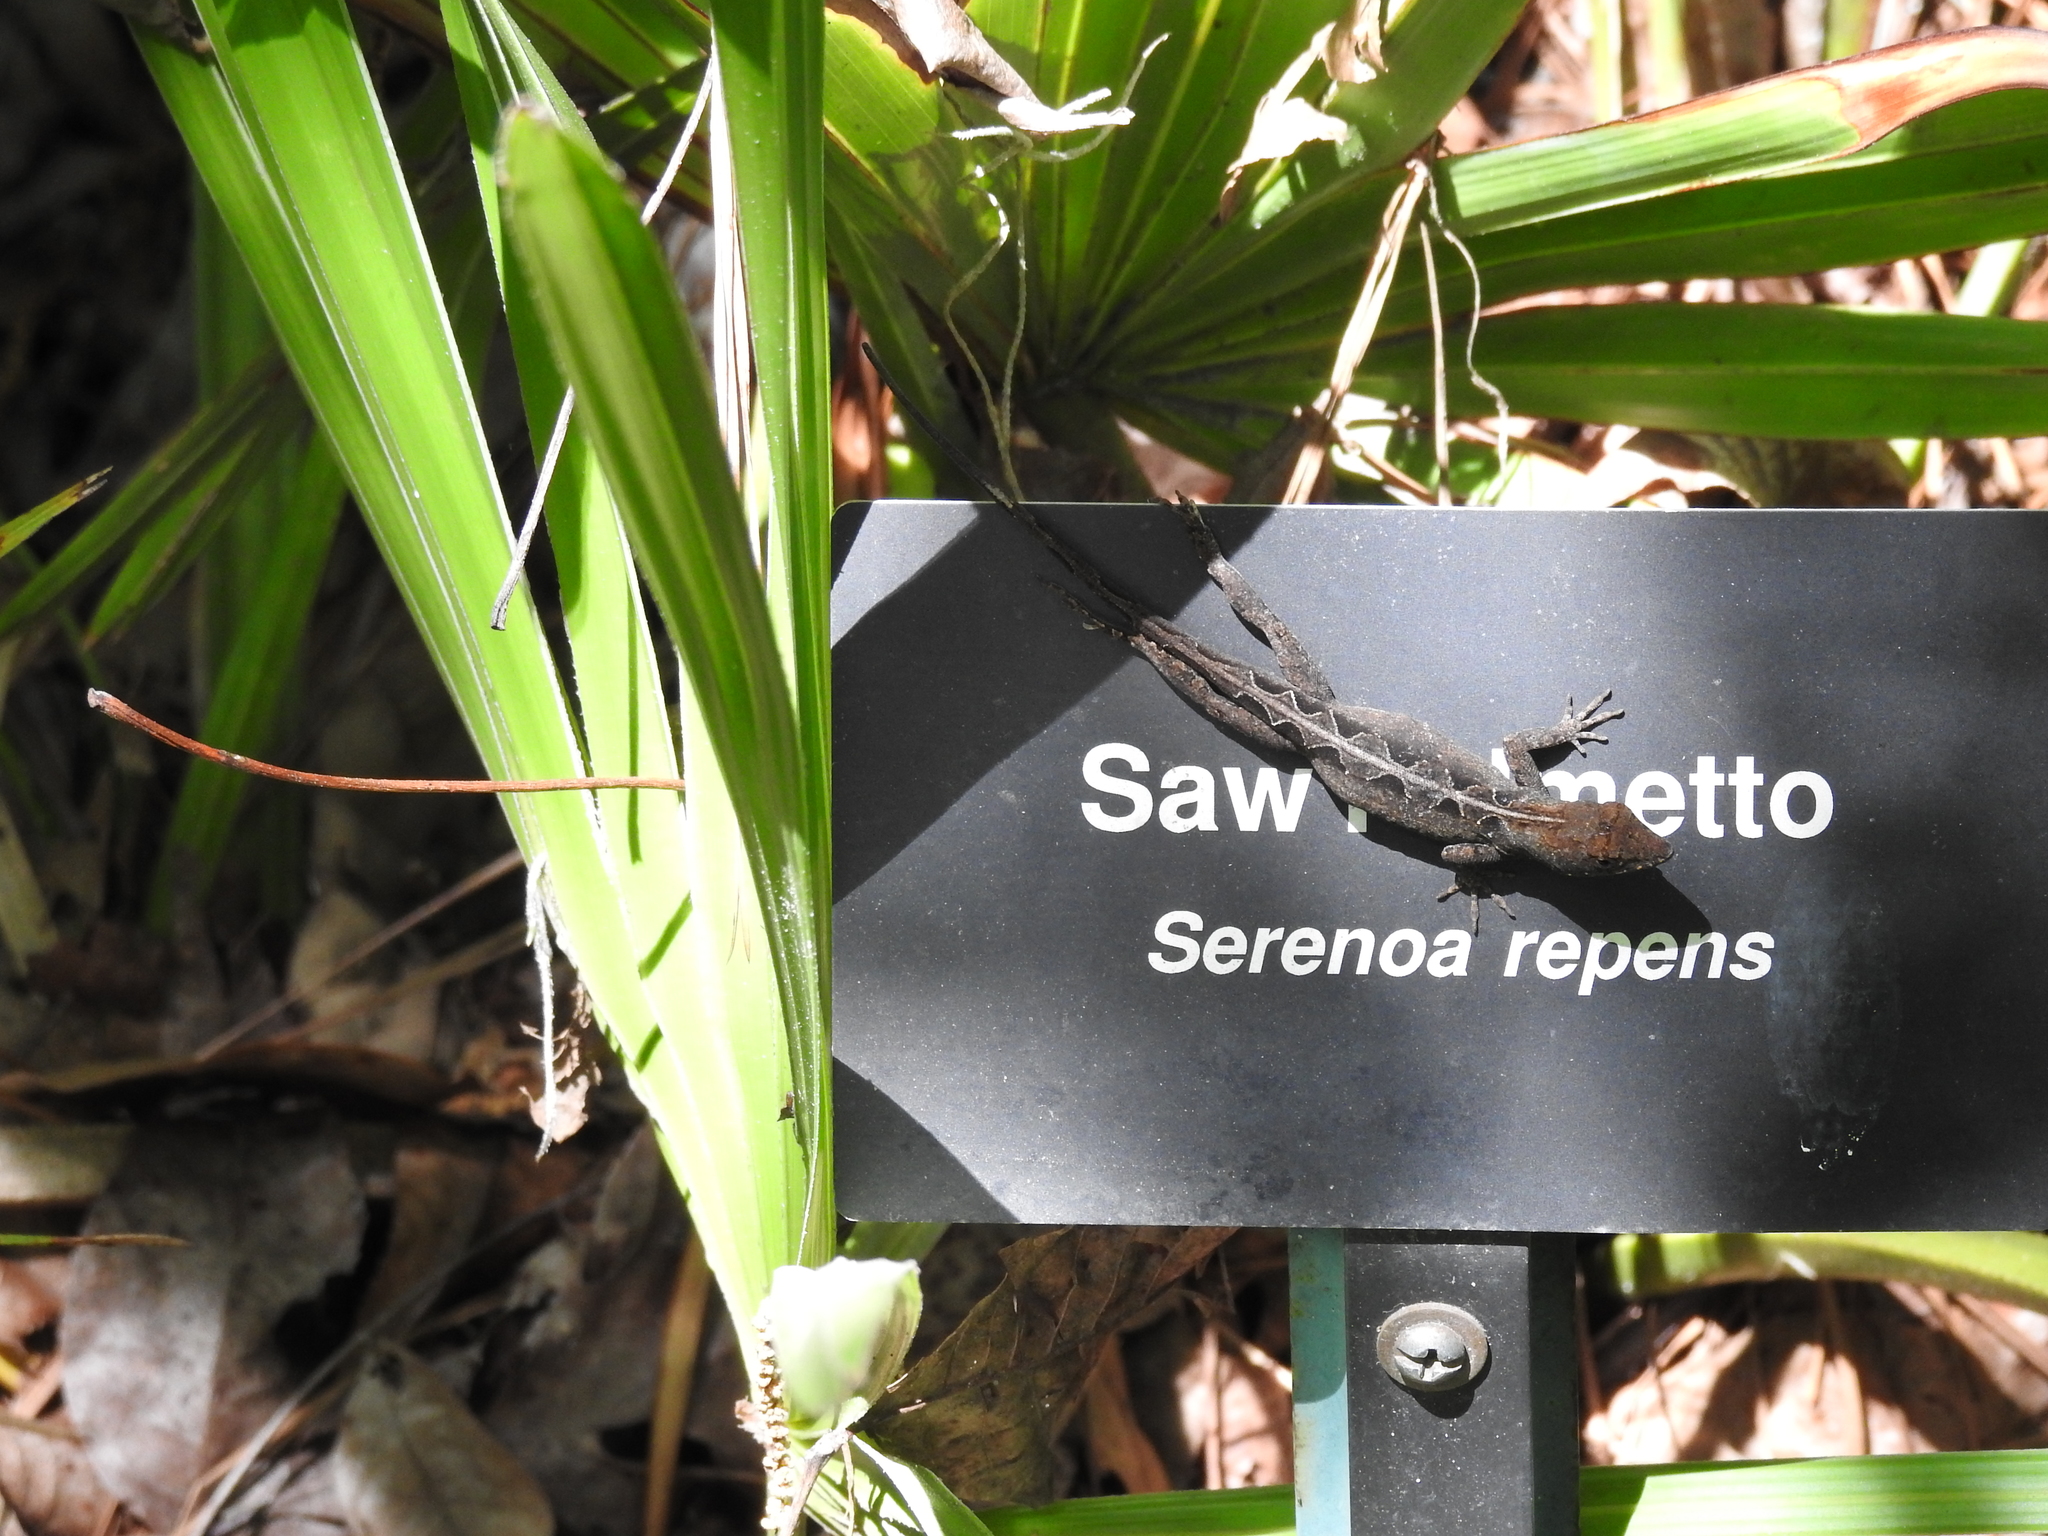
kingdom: Animalia
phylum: Chordata
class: Squamata
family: Dactyloidae
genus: Anolis
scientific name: Anolis sagrei
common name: Brown anole
